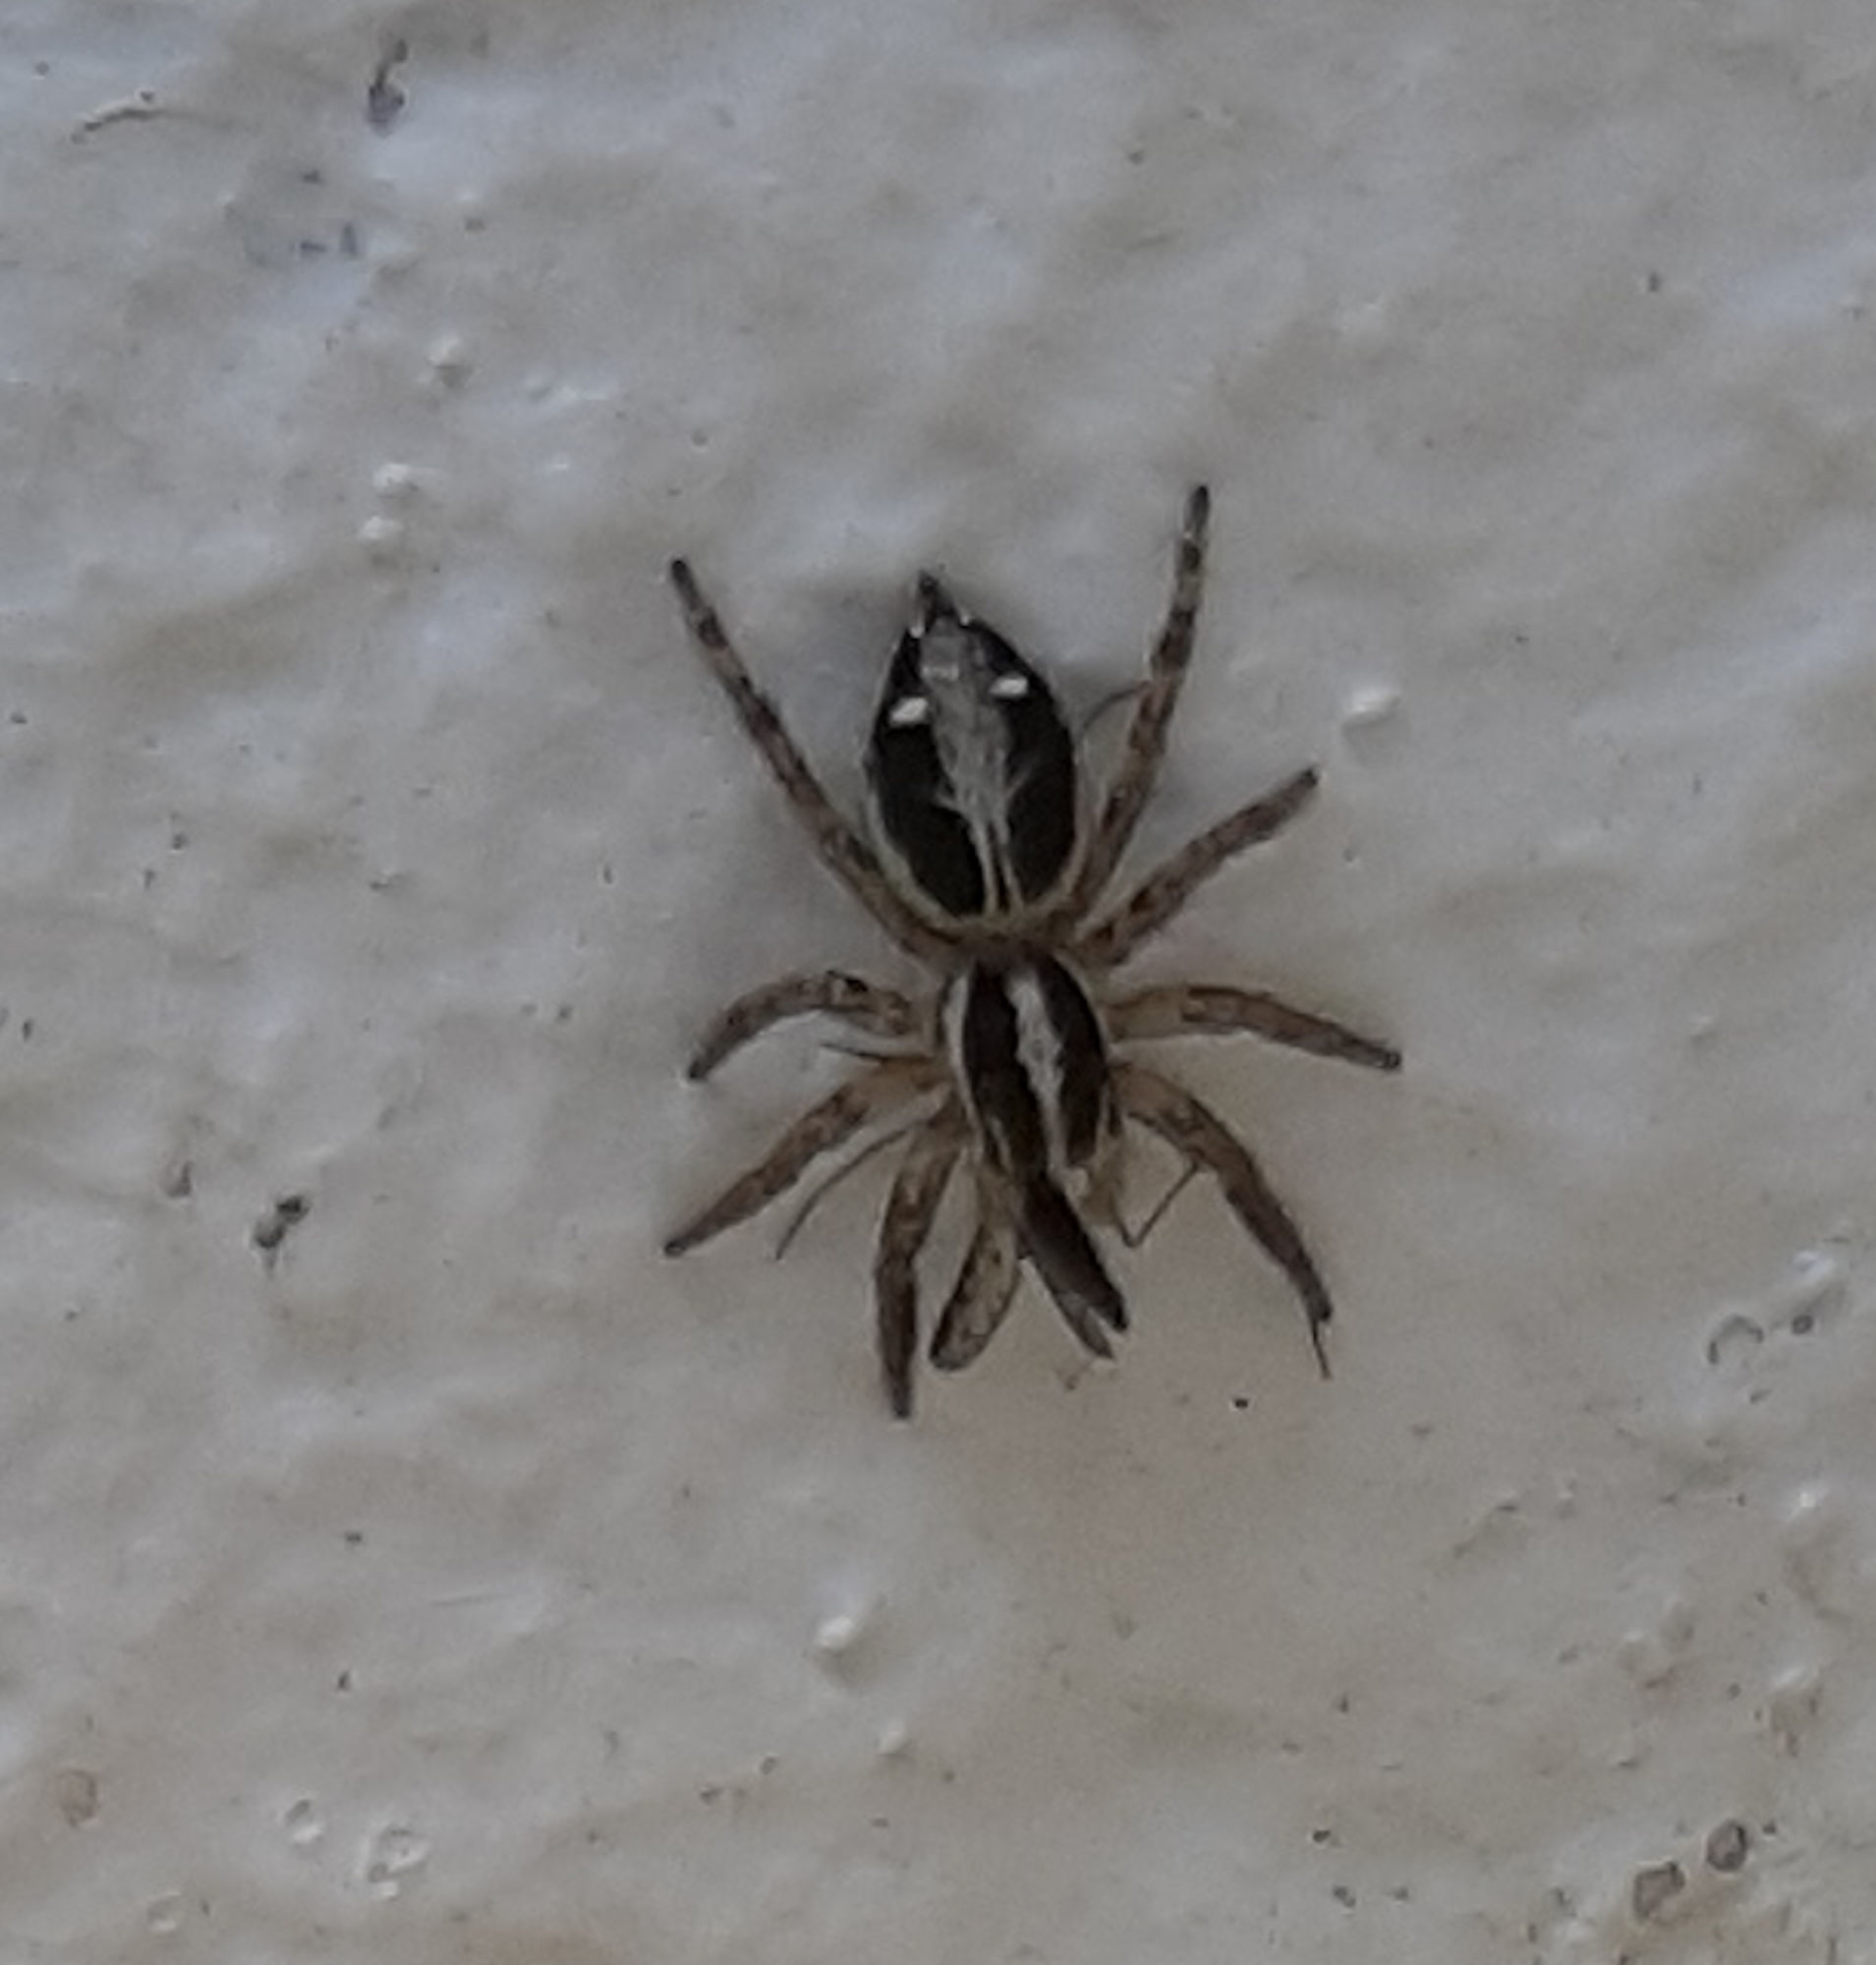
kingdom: Animalia
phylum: Arthropoda
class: Arachnida
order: Araneae
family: Salticidae
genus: Plexippus
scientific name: Plexippus paykulli
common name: Pantropical jumper
